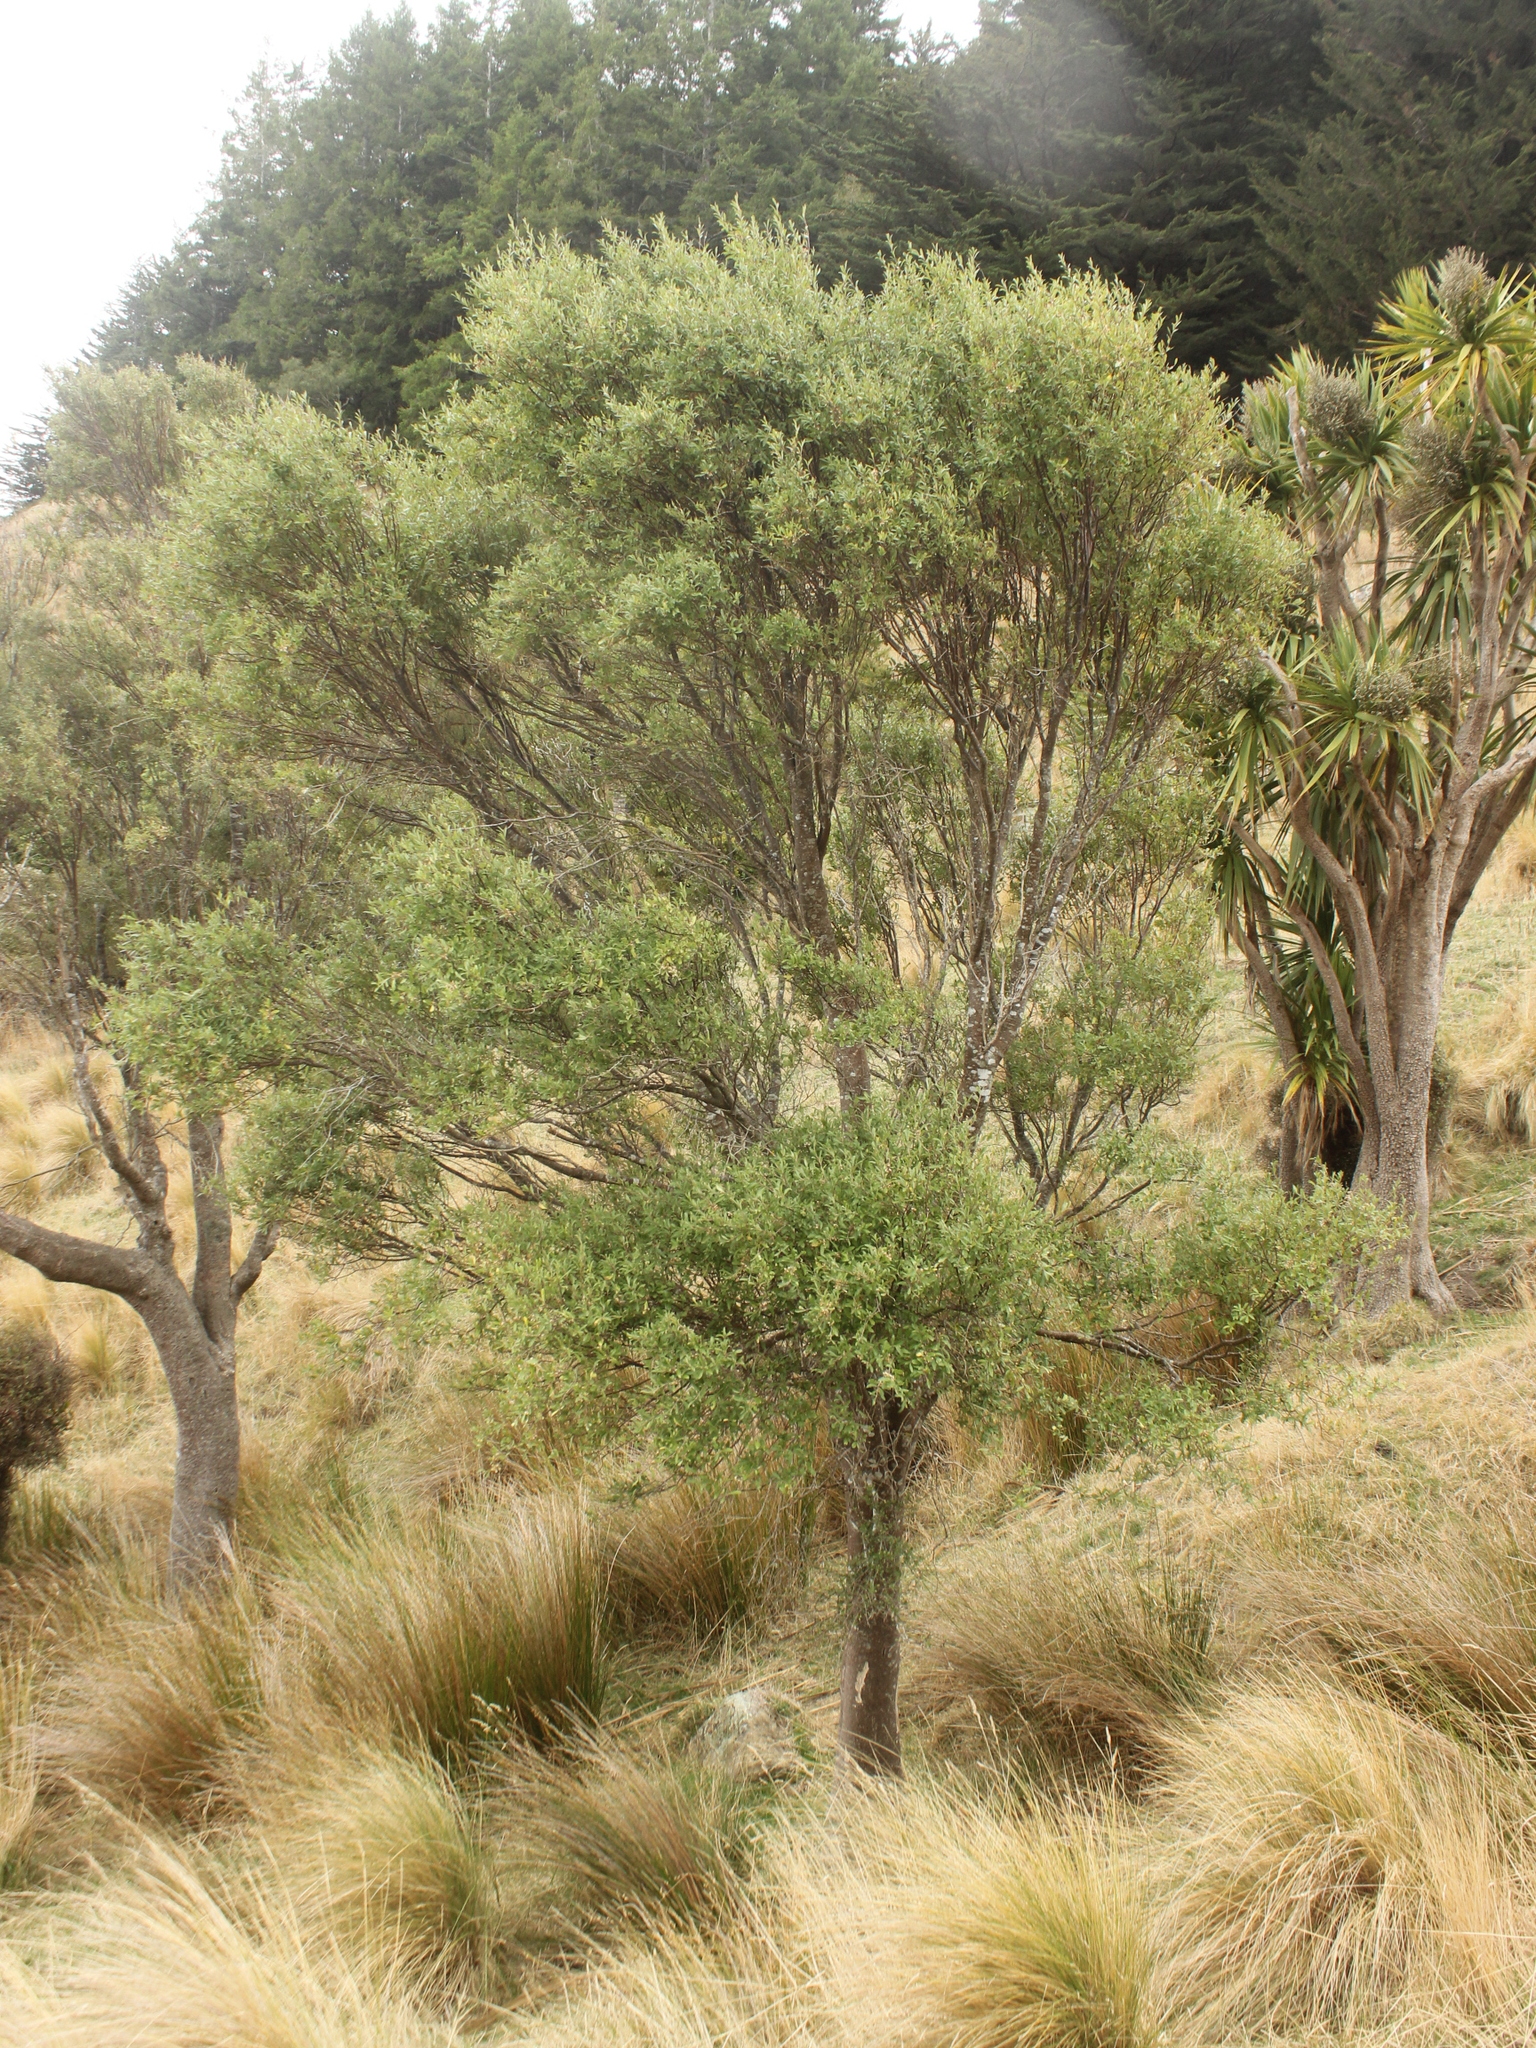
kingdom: Plantae
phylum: Tracheophyta
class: Magnoliopsida
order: Malvales
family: Malvaceae
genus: Hoheria
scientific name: Hoheria angustifolia
